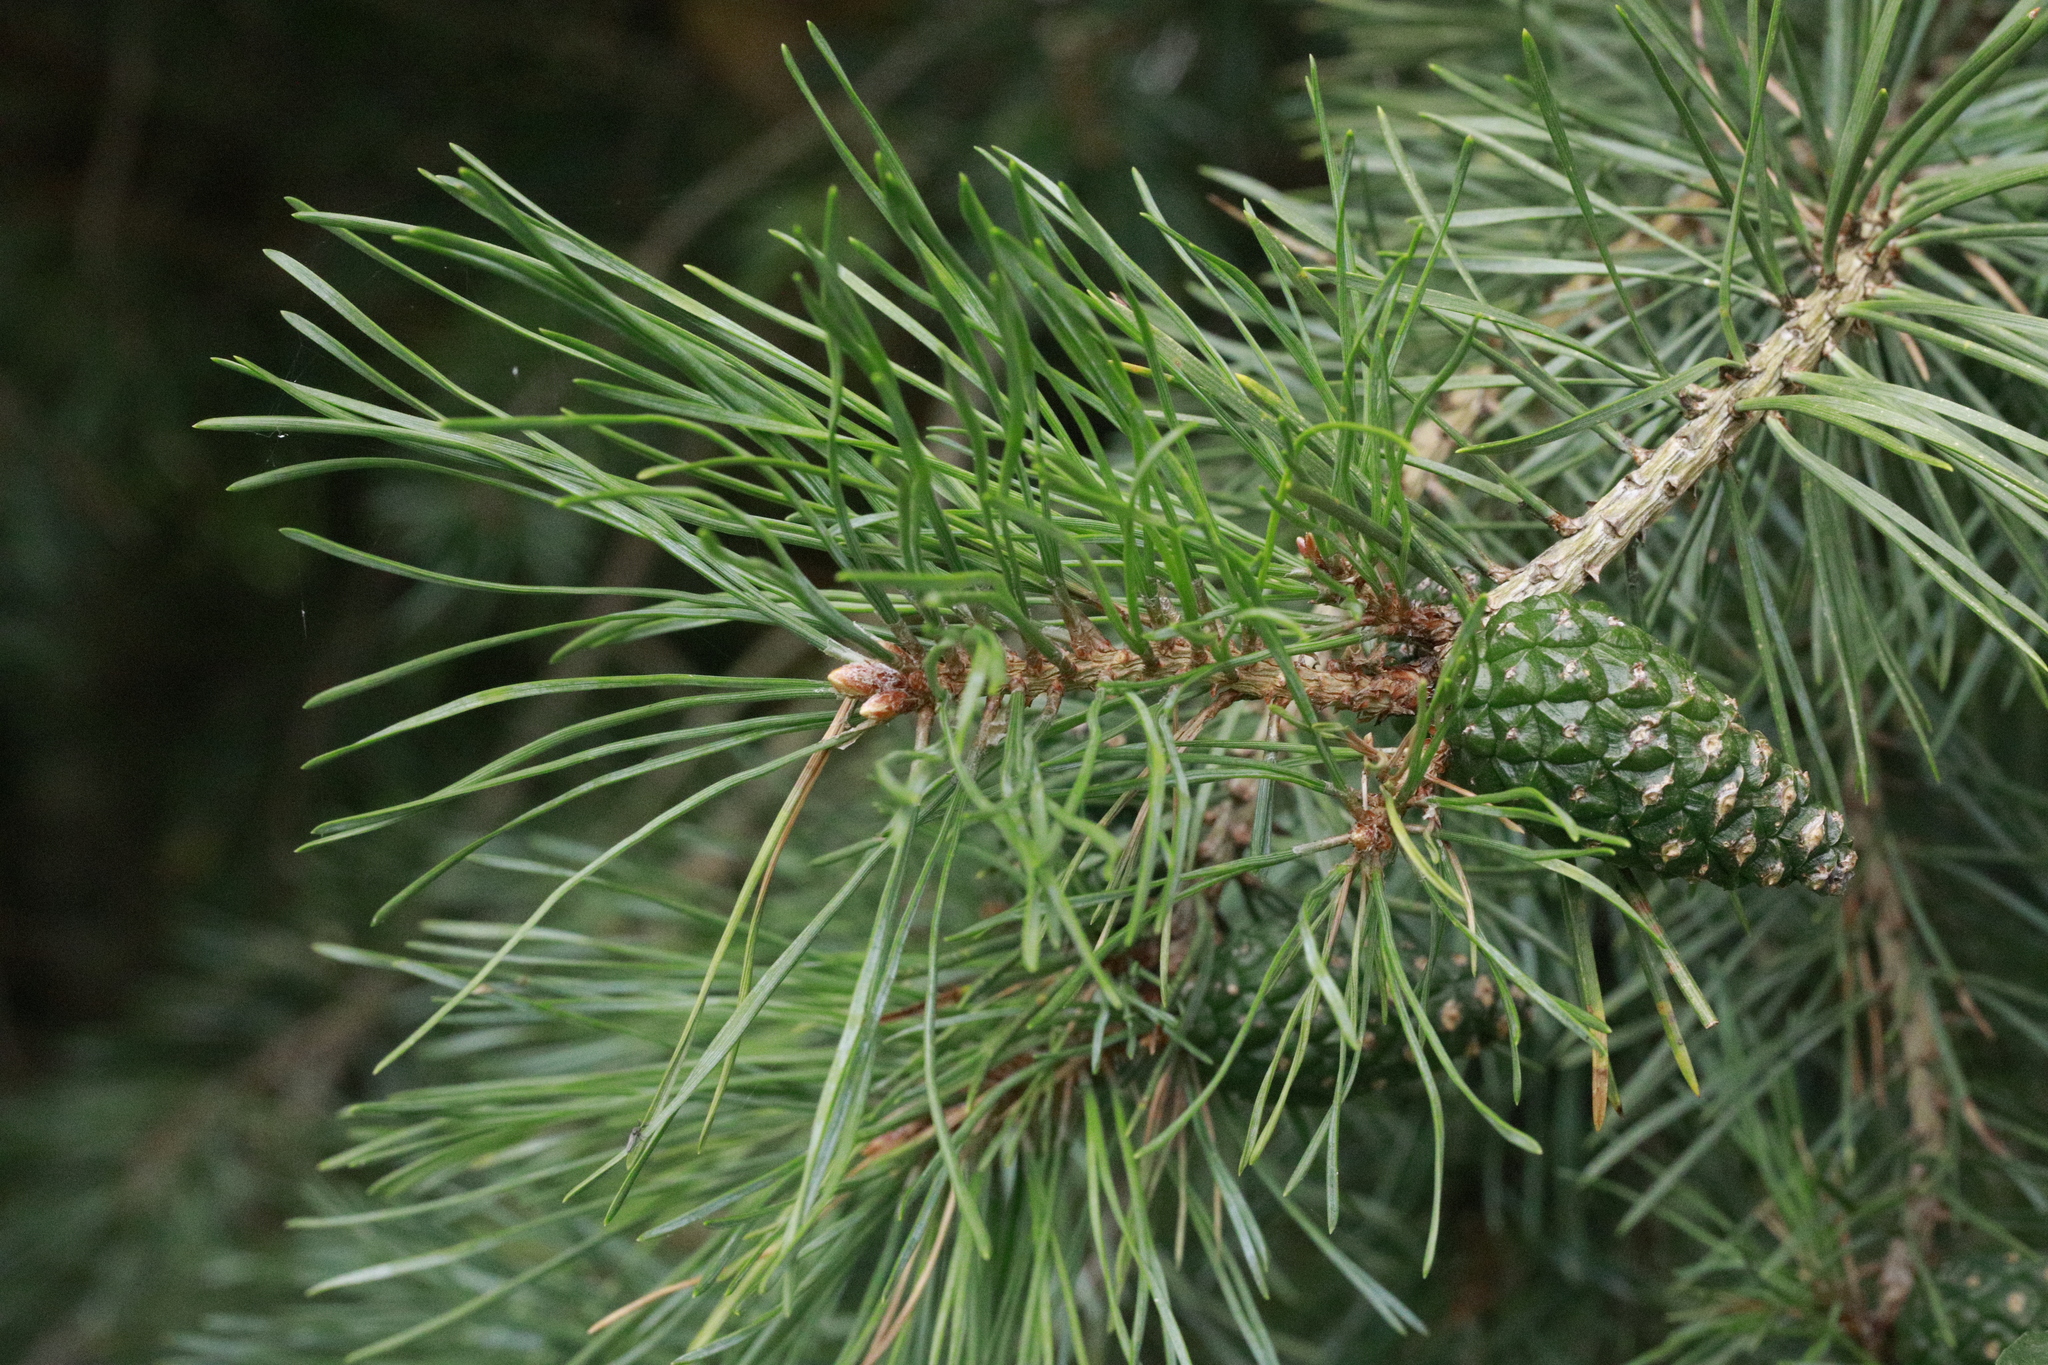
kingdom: Plantae
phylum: Tracheophyta
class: Pinopsida
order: Pinales
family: Pinaceae
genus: Pinus
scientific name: Pinus sylvestris
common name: Scots pine
